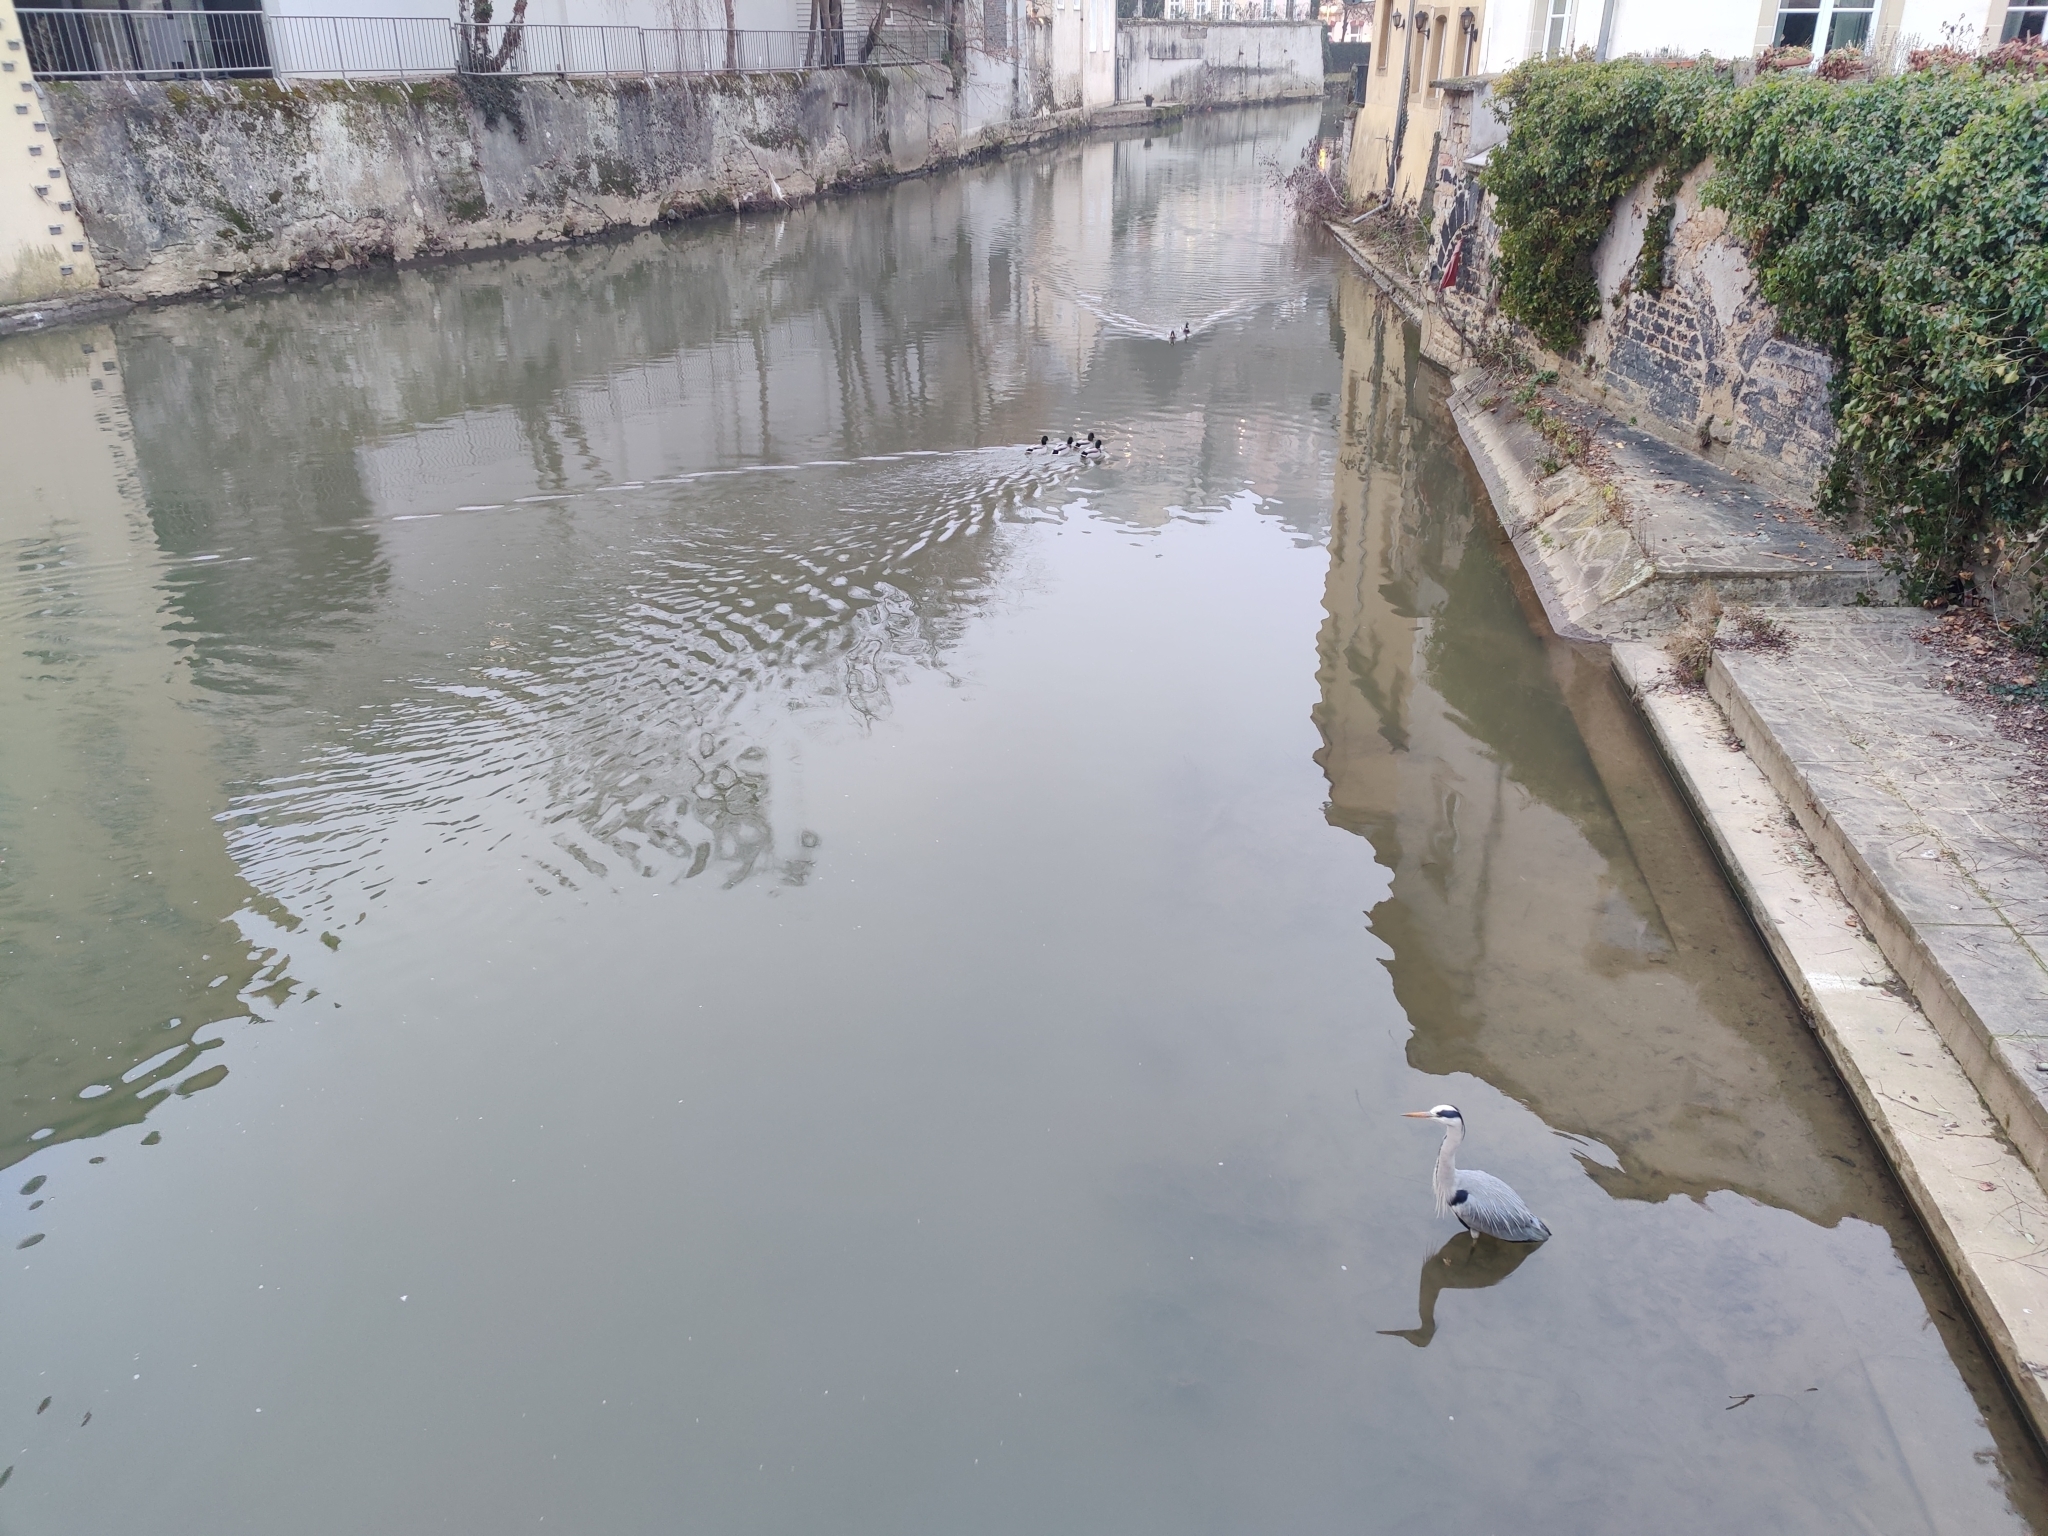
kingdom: Animalia
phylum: Chordata
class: Aves
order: Pelecaniformes
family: Ardeidae
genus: Ardea
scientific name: Ardea cinerea
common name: Grey heron
